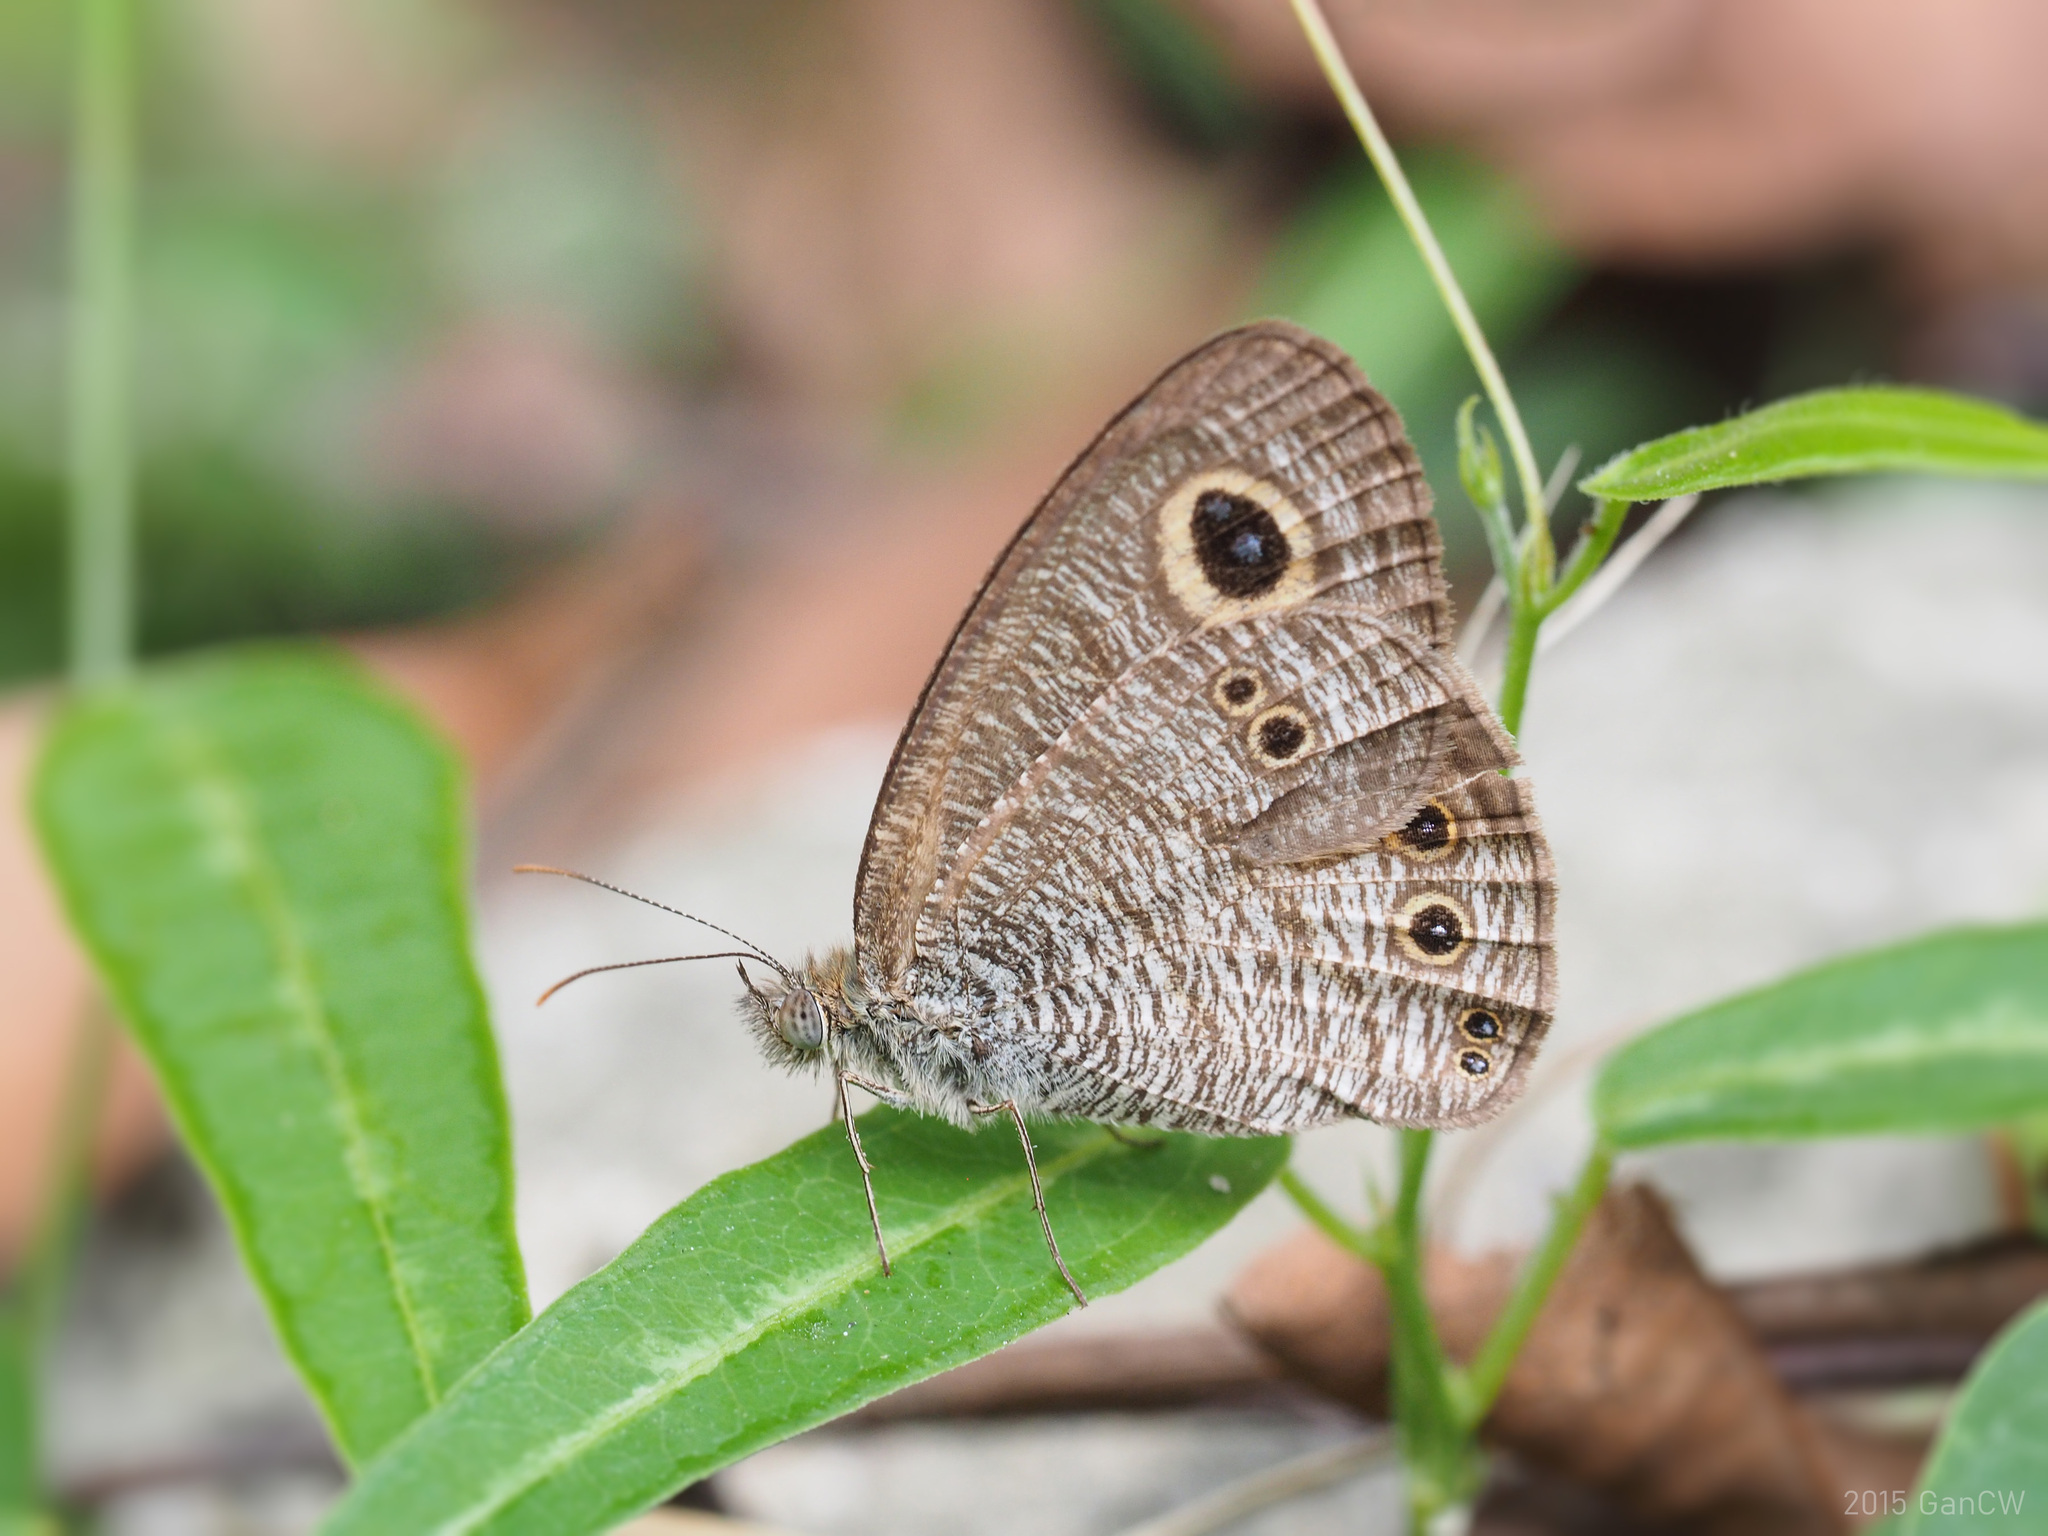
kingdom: Animalia
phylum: Arthropoda
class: Insecta
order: Lepidoptera
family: Nymphalidae
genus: Ypthima
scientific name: Ypthima baldus
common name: Common five-ring
